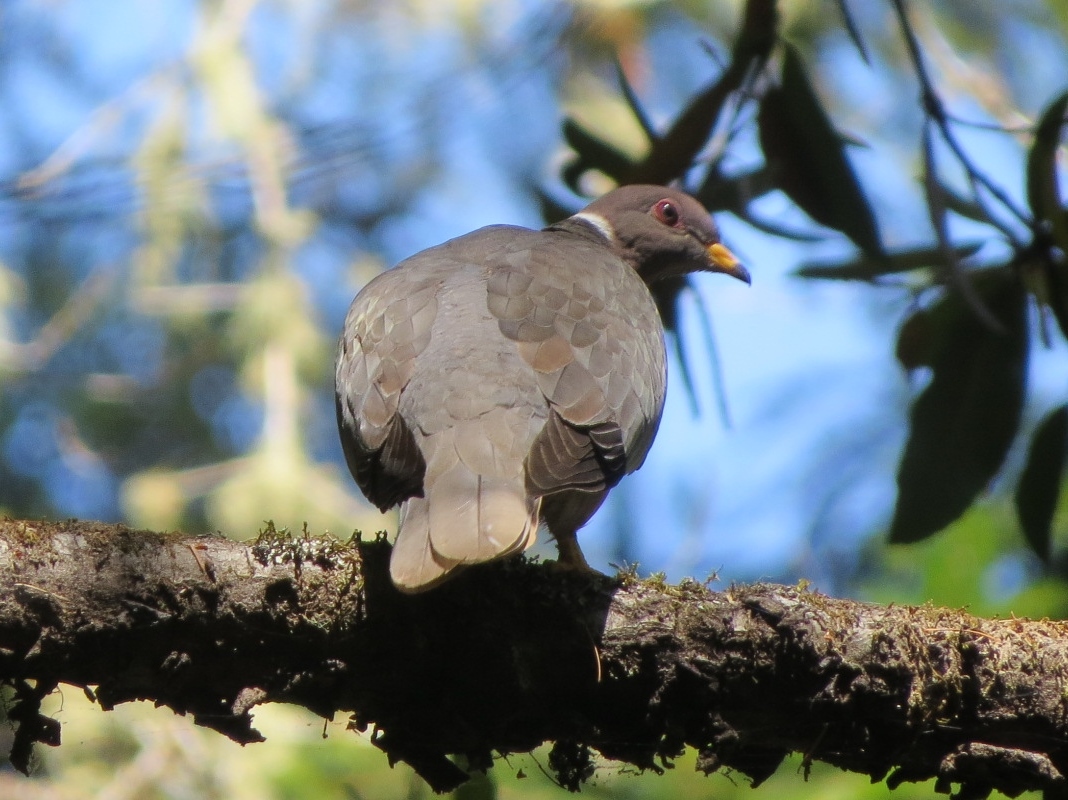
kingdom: Animalia
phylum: Chordata
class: Aves
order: Columbiformes
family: Columbidae
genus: Patagioenas
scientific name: Patagioenas fasciata
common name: Band-tailed pigeon
